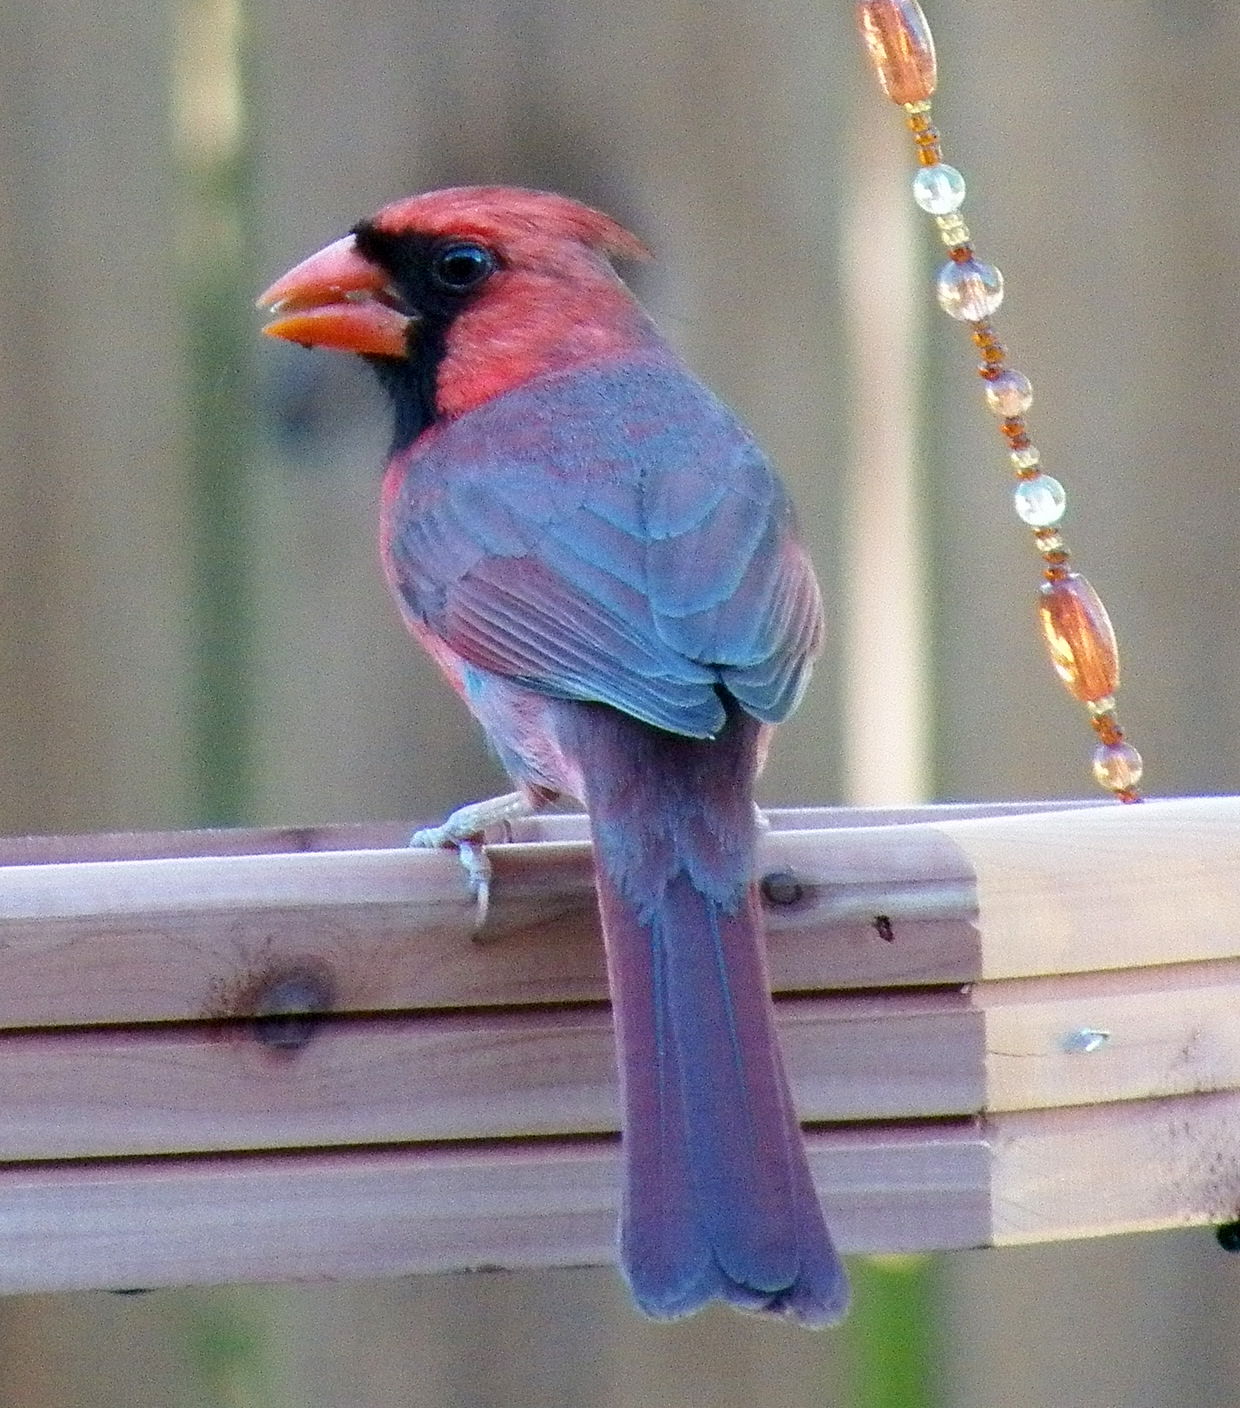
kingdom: Animalia
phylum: Chordata
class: Aves
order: Passeriformes
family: Cardinalidae
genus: Cardinalis
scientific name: Cardinalis cardinalis
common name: Northern cardinal
